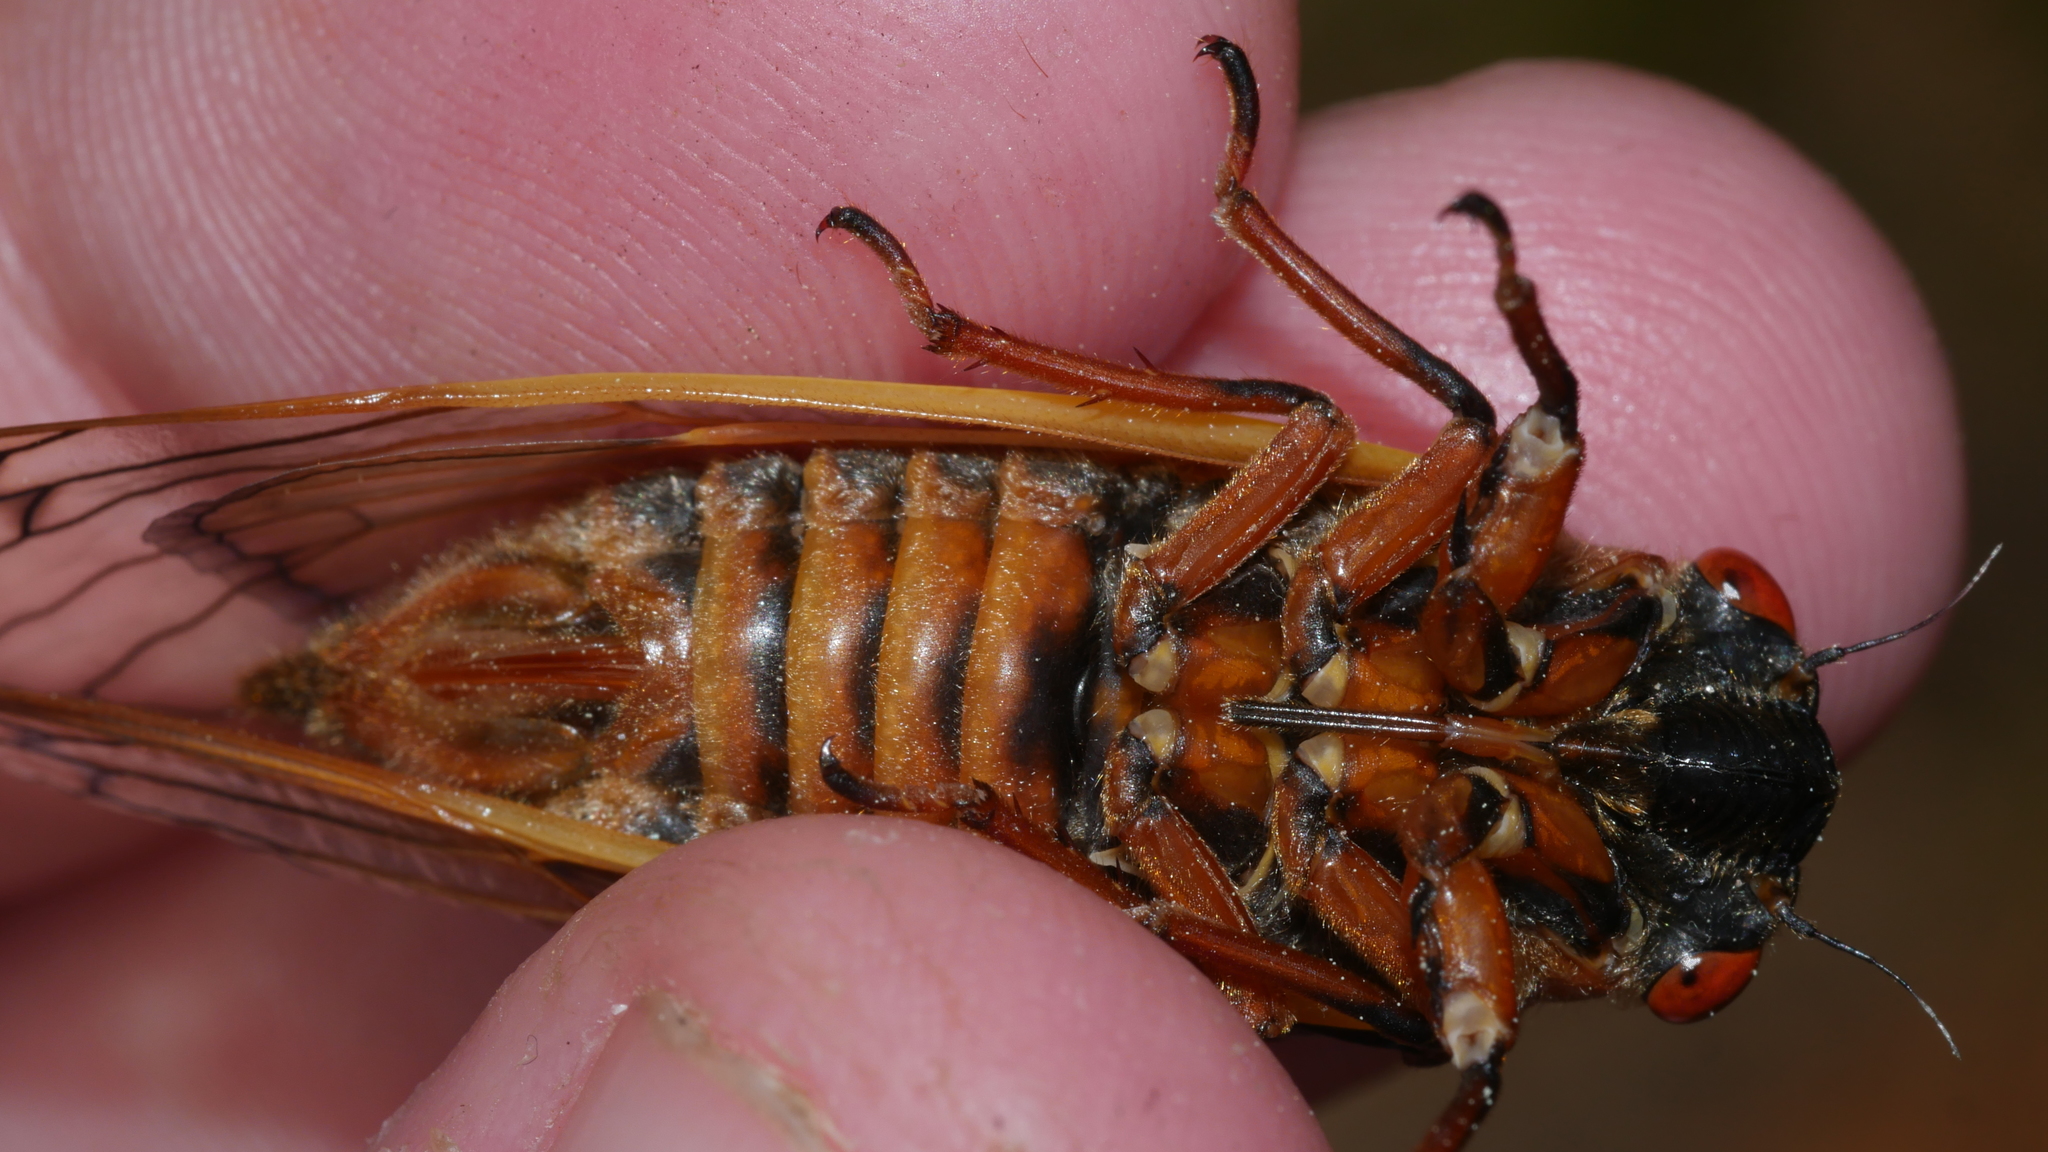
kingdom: Animalia
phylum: Arthropoda
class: Insecta
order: Hemiptera
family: Cicadidae
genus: Magicicada
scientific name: Magicicada septendecim
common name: Periodical cicada
